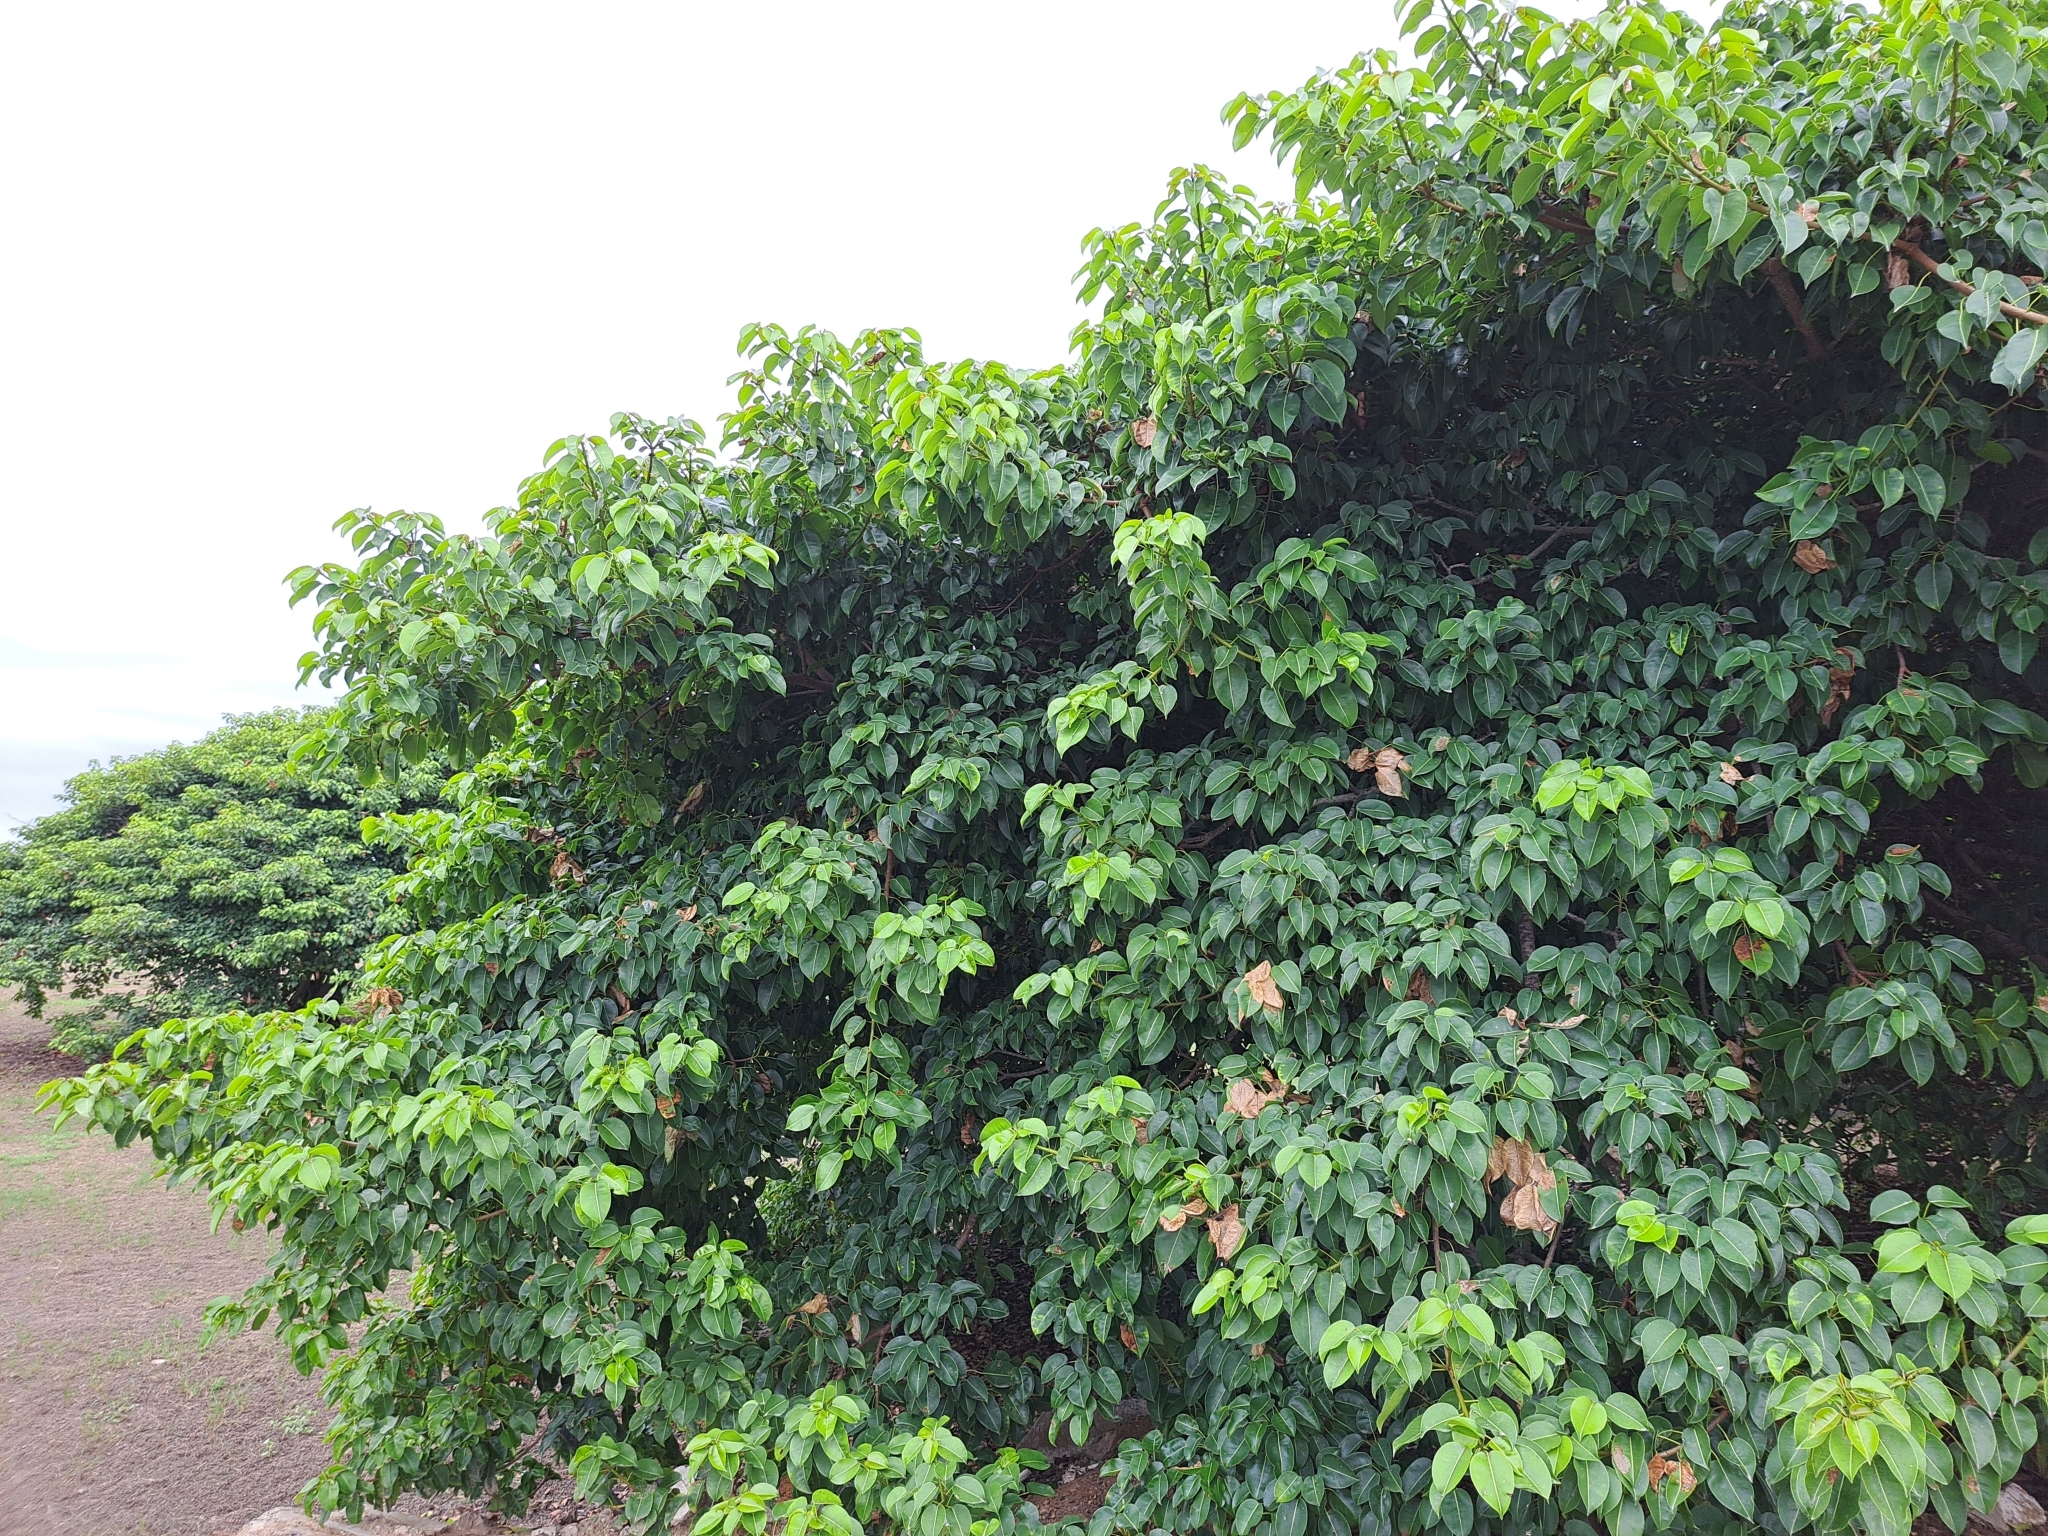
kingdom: Plantae
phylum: Tracheophyta
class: Magnoliopsida
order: Malpighiales
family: Euphorbiaceae
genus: Hippomane
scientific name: Hippomane mancinella
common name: Manchineel
